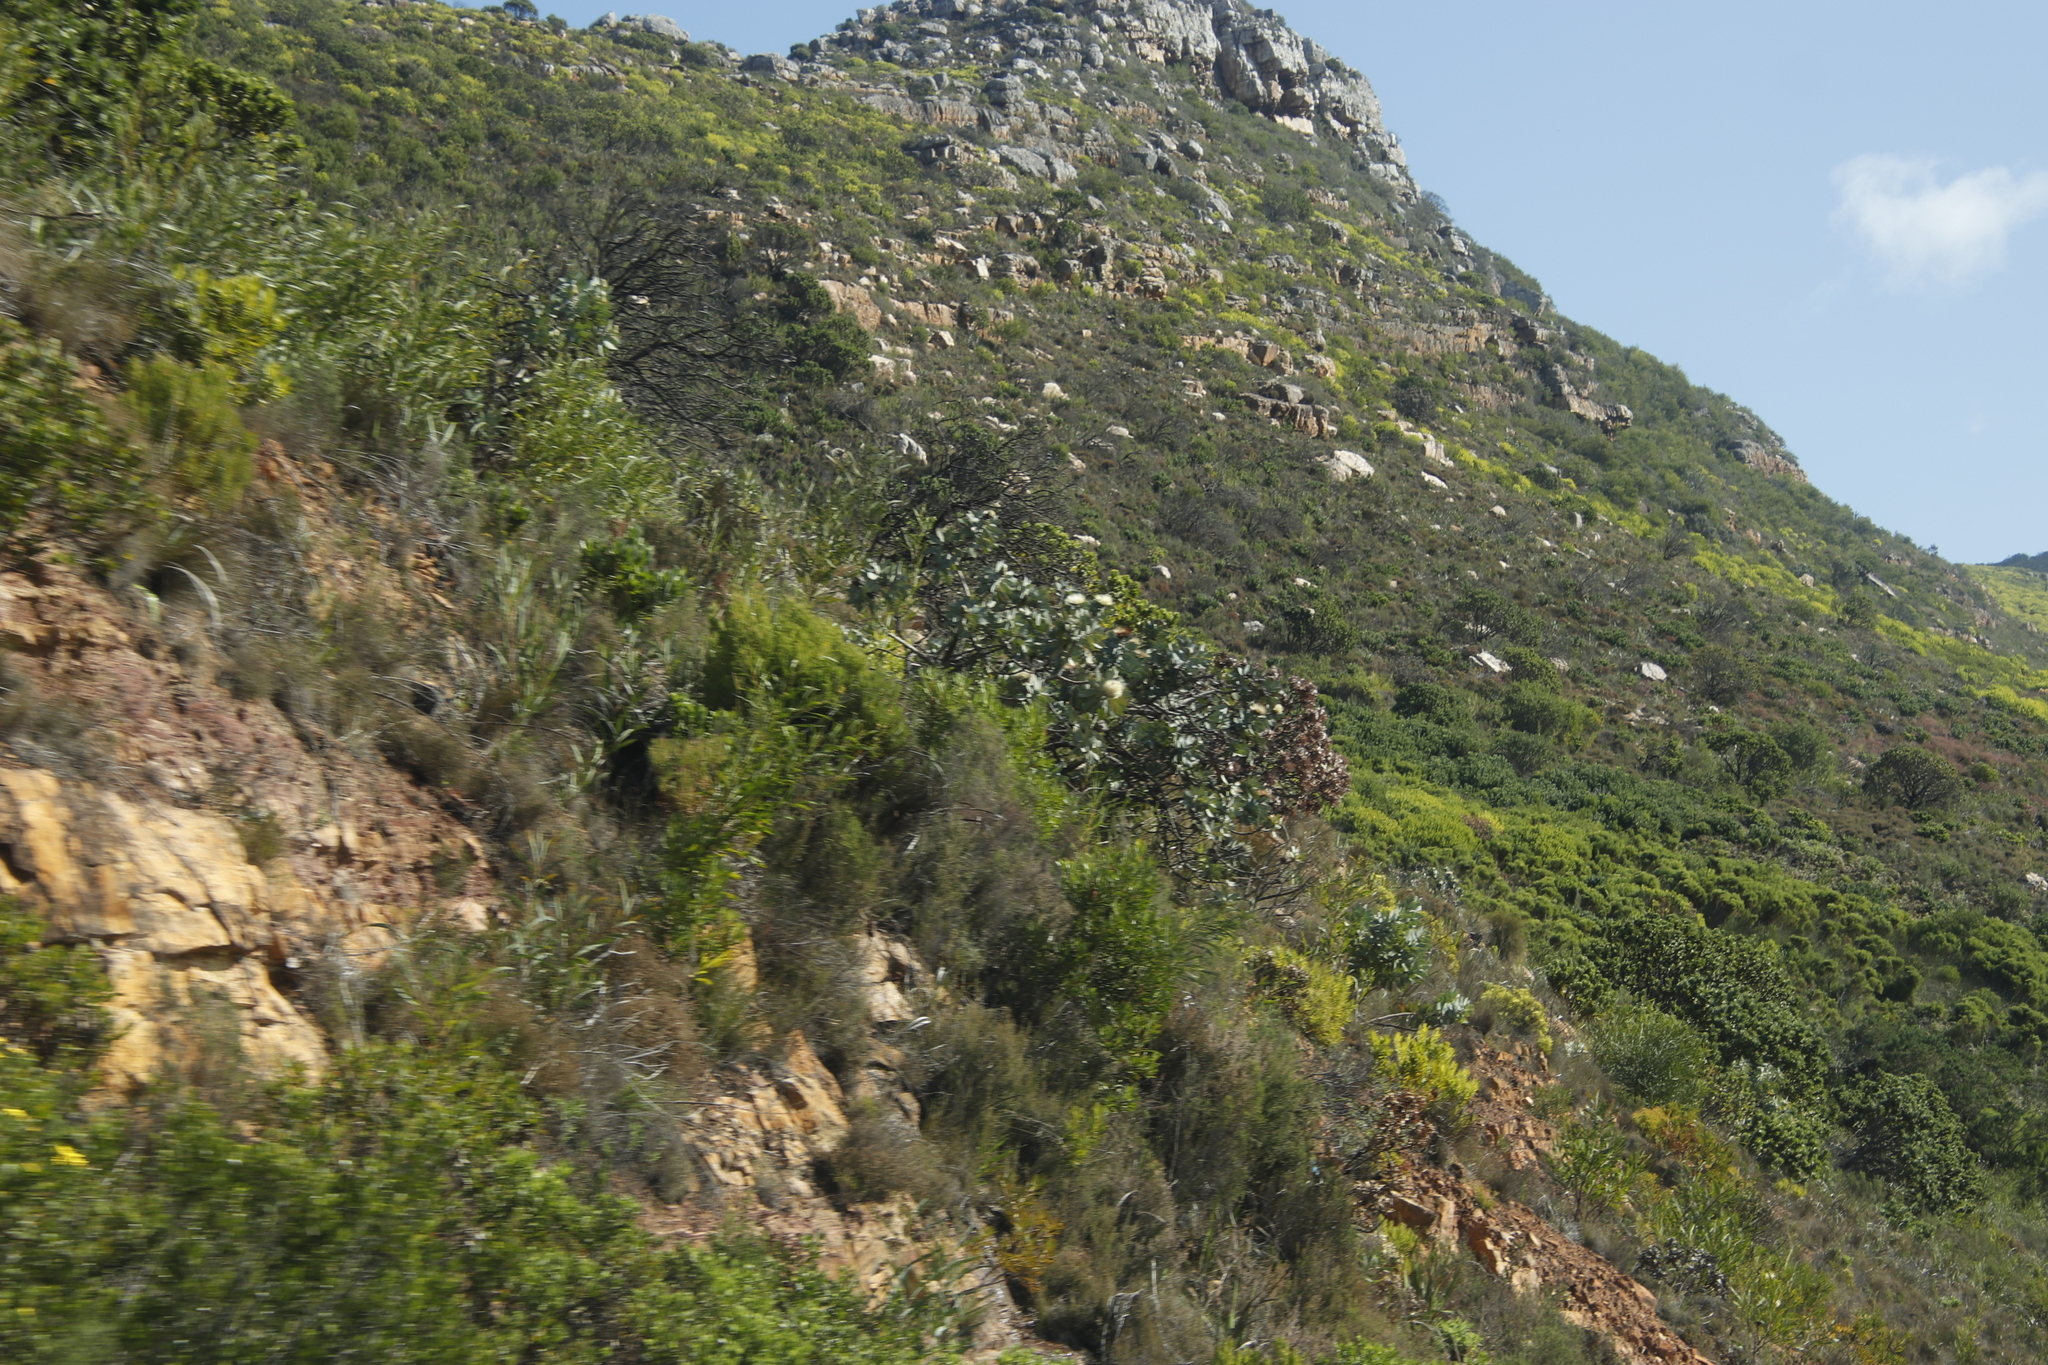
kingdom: Plantae
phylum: Tracheophyta
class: Magnoliopsida
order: Proteales
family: Proteaceae
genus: Protea
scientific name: Protea nitida
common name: Tree protea
